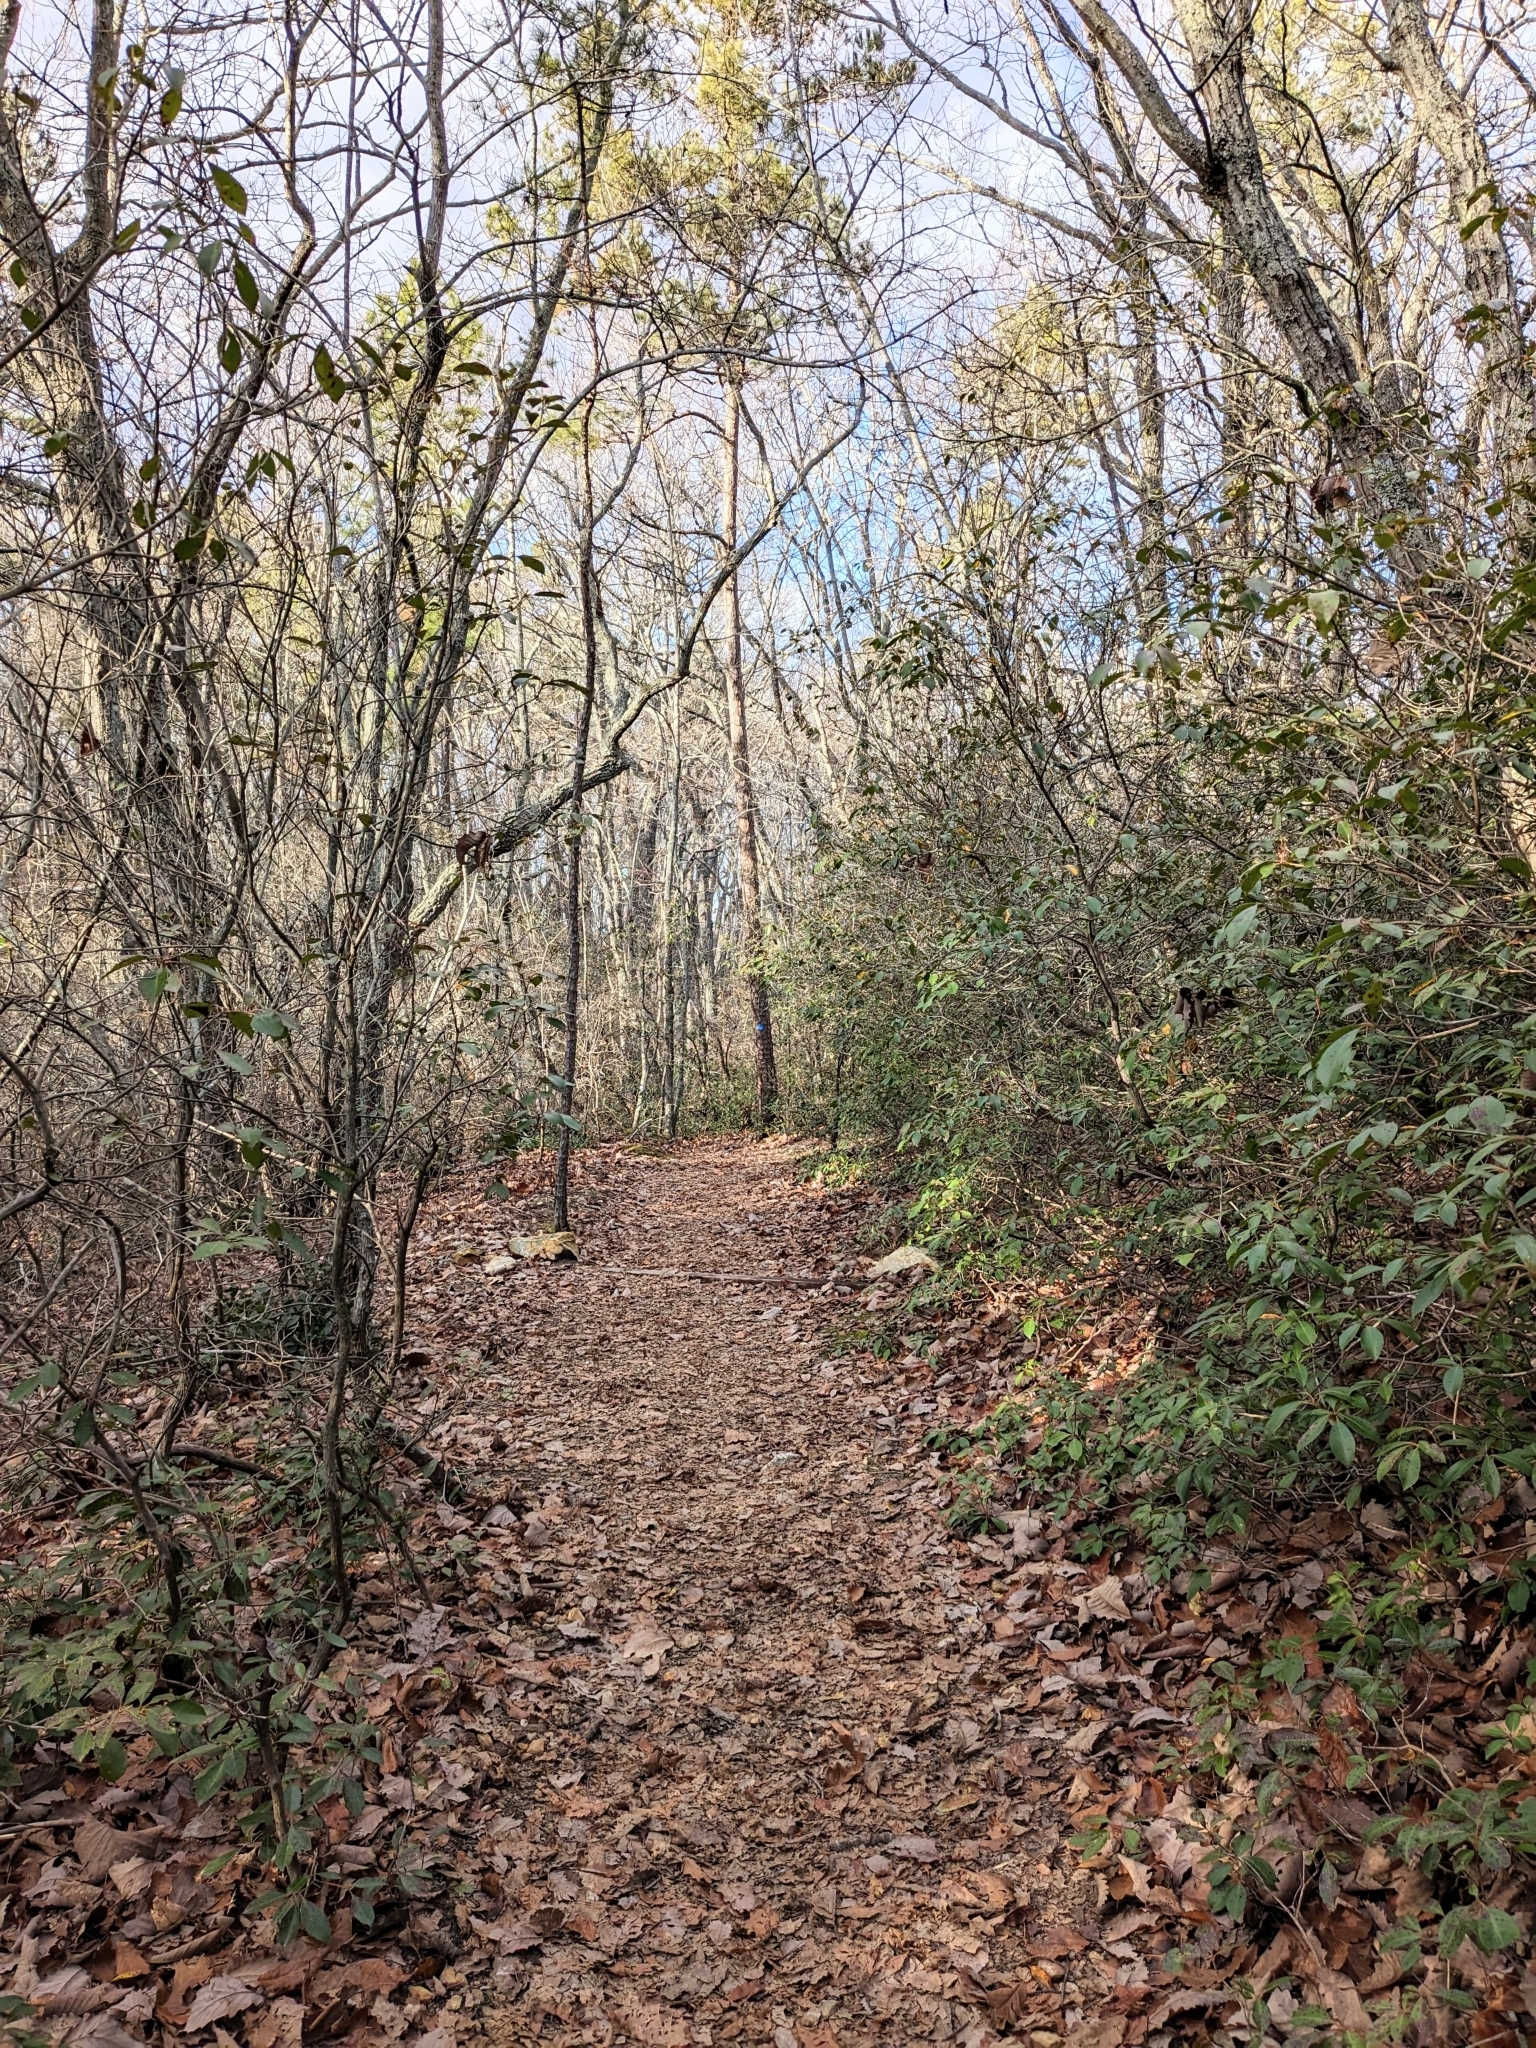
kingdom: Plantae
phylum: Tracheophyta
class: Magnoliopsida
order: Ericales
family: Ericaceae
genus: Kalmia
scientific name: Kalmia latifolia
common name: Mountain-laurel
